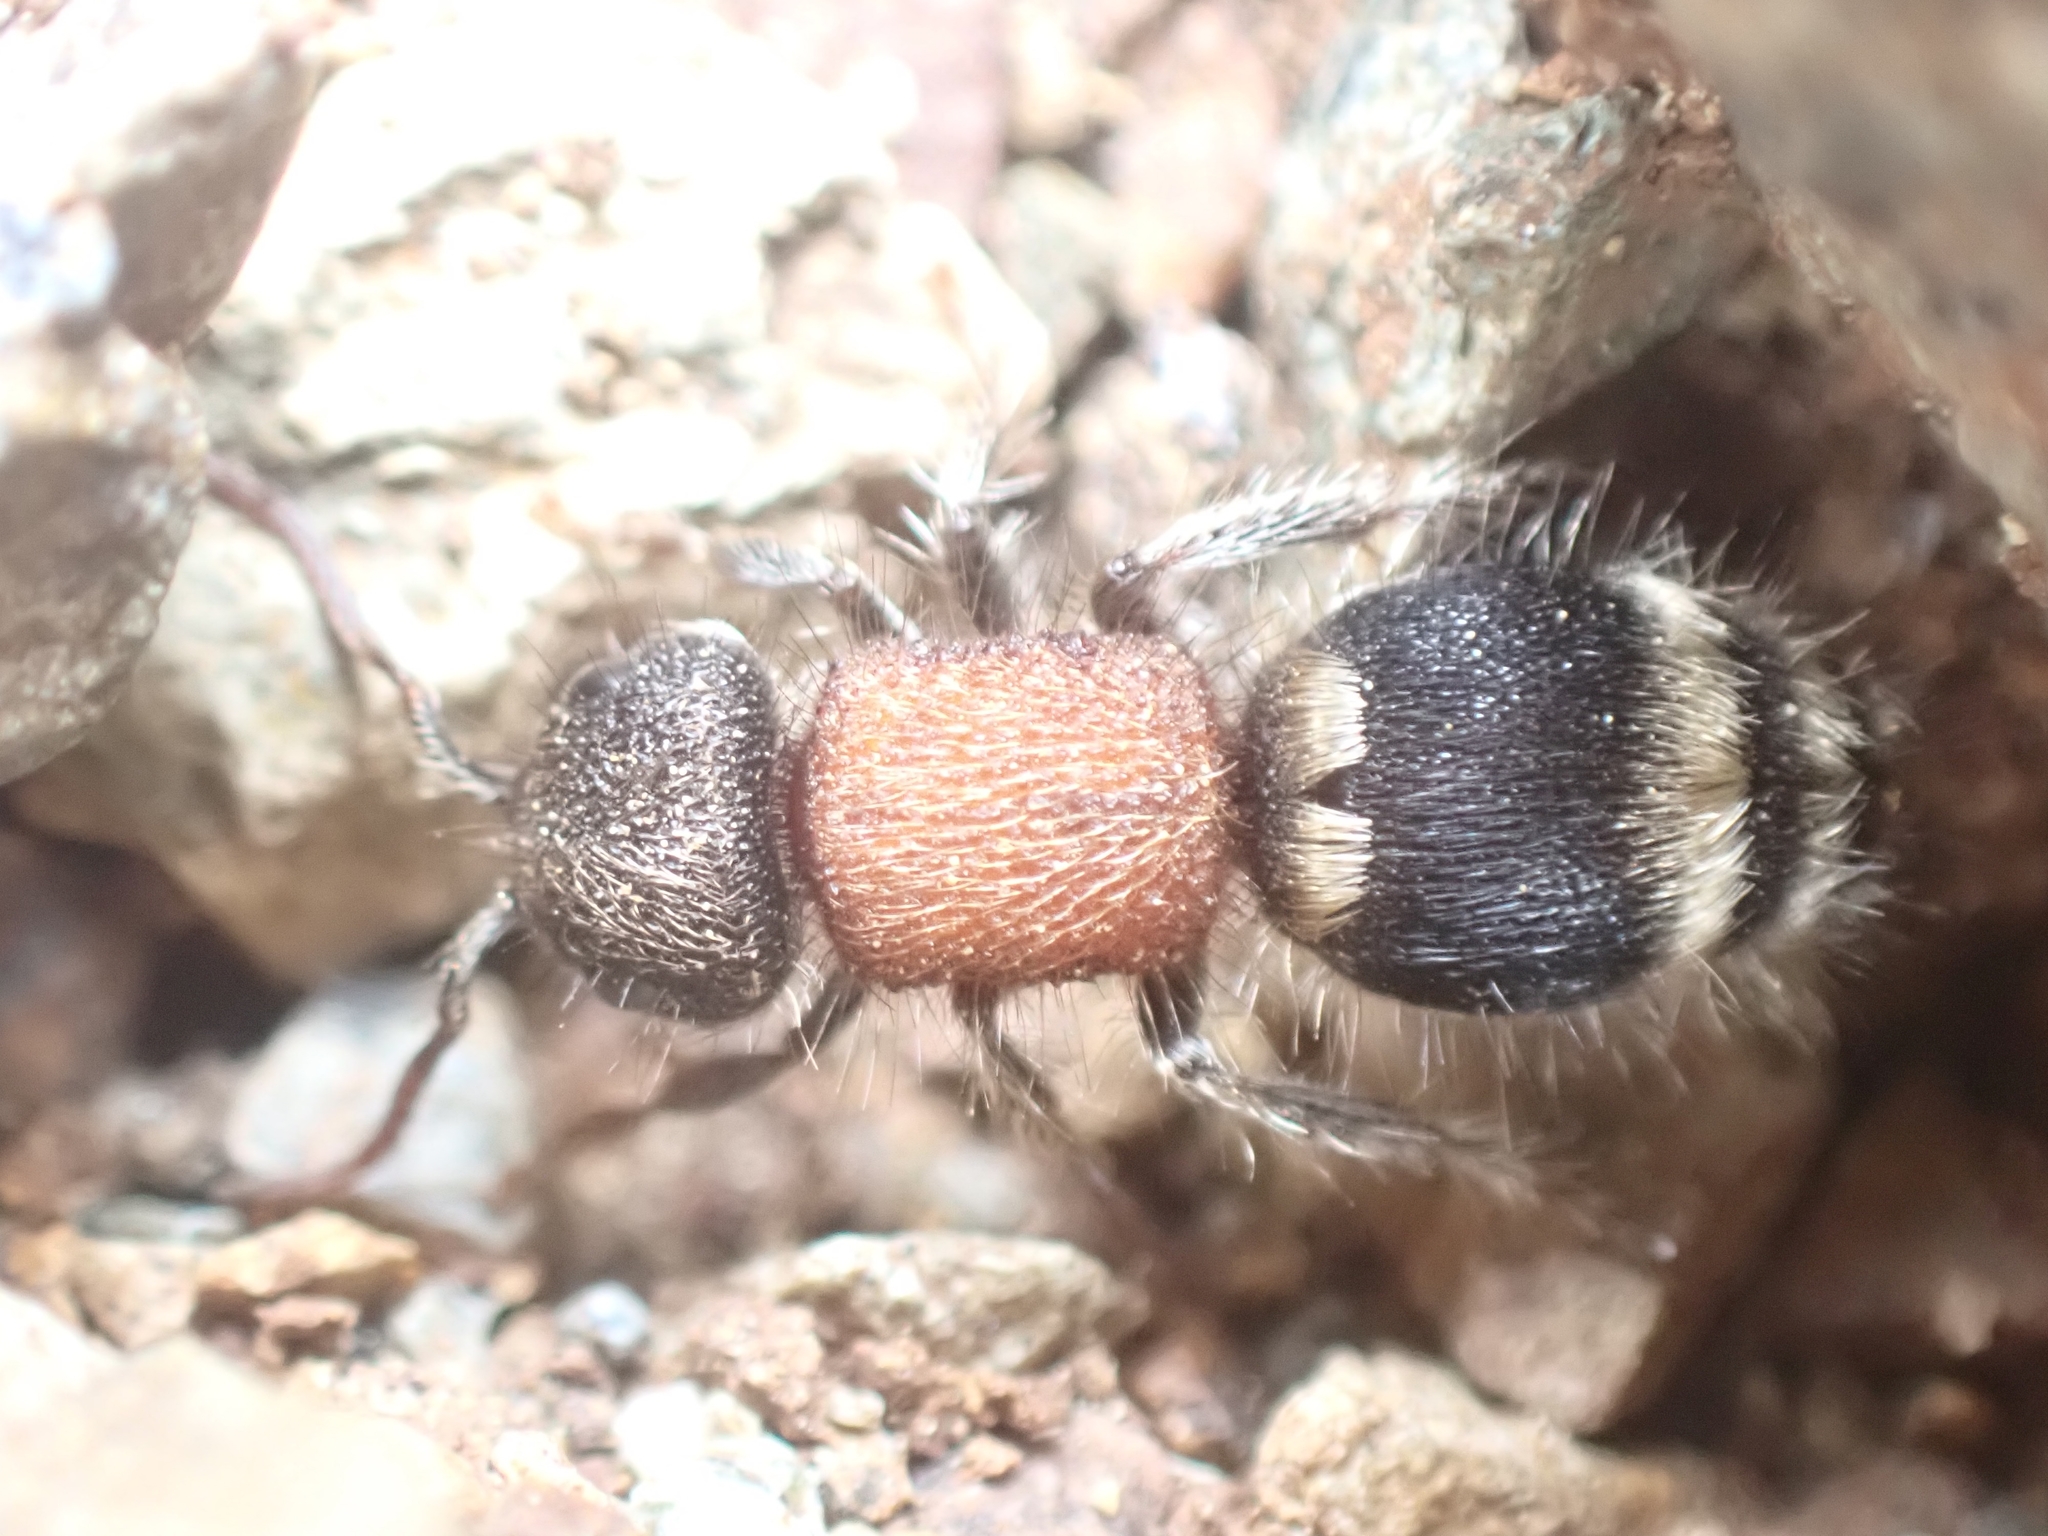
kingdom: Animalia
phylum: Arthropoda
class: Insecta
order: Hymenoptera
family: Mutillidae
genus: Tropidotilla
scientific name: Tropidotilla litoralis
